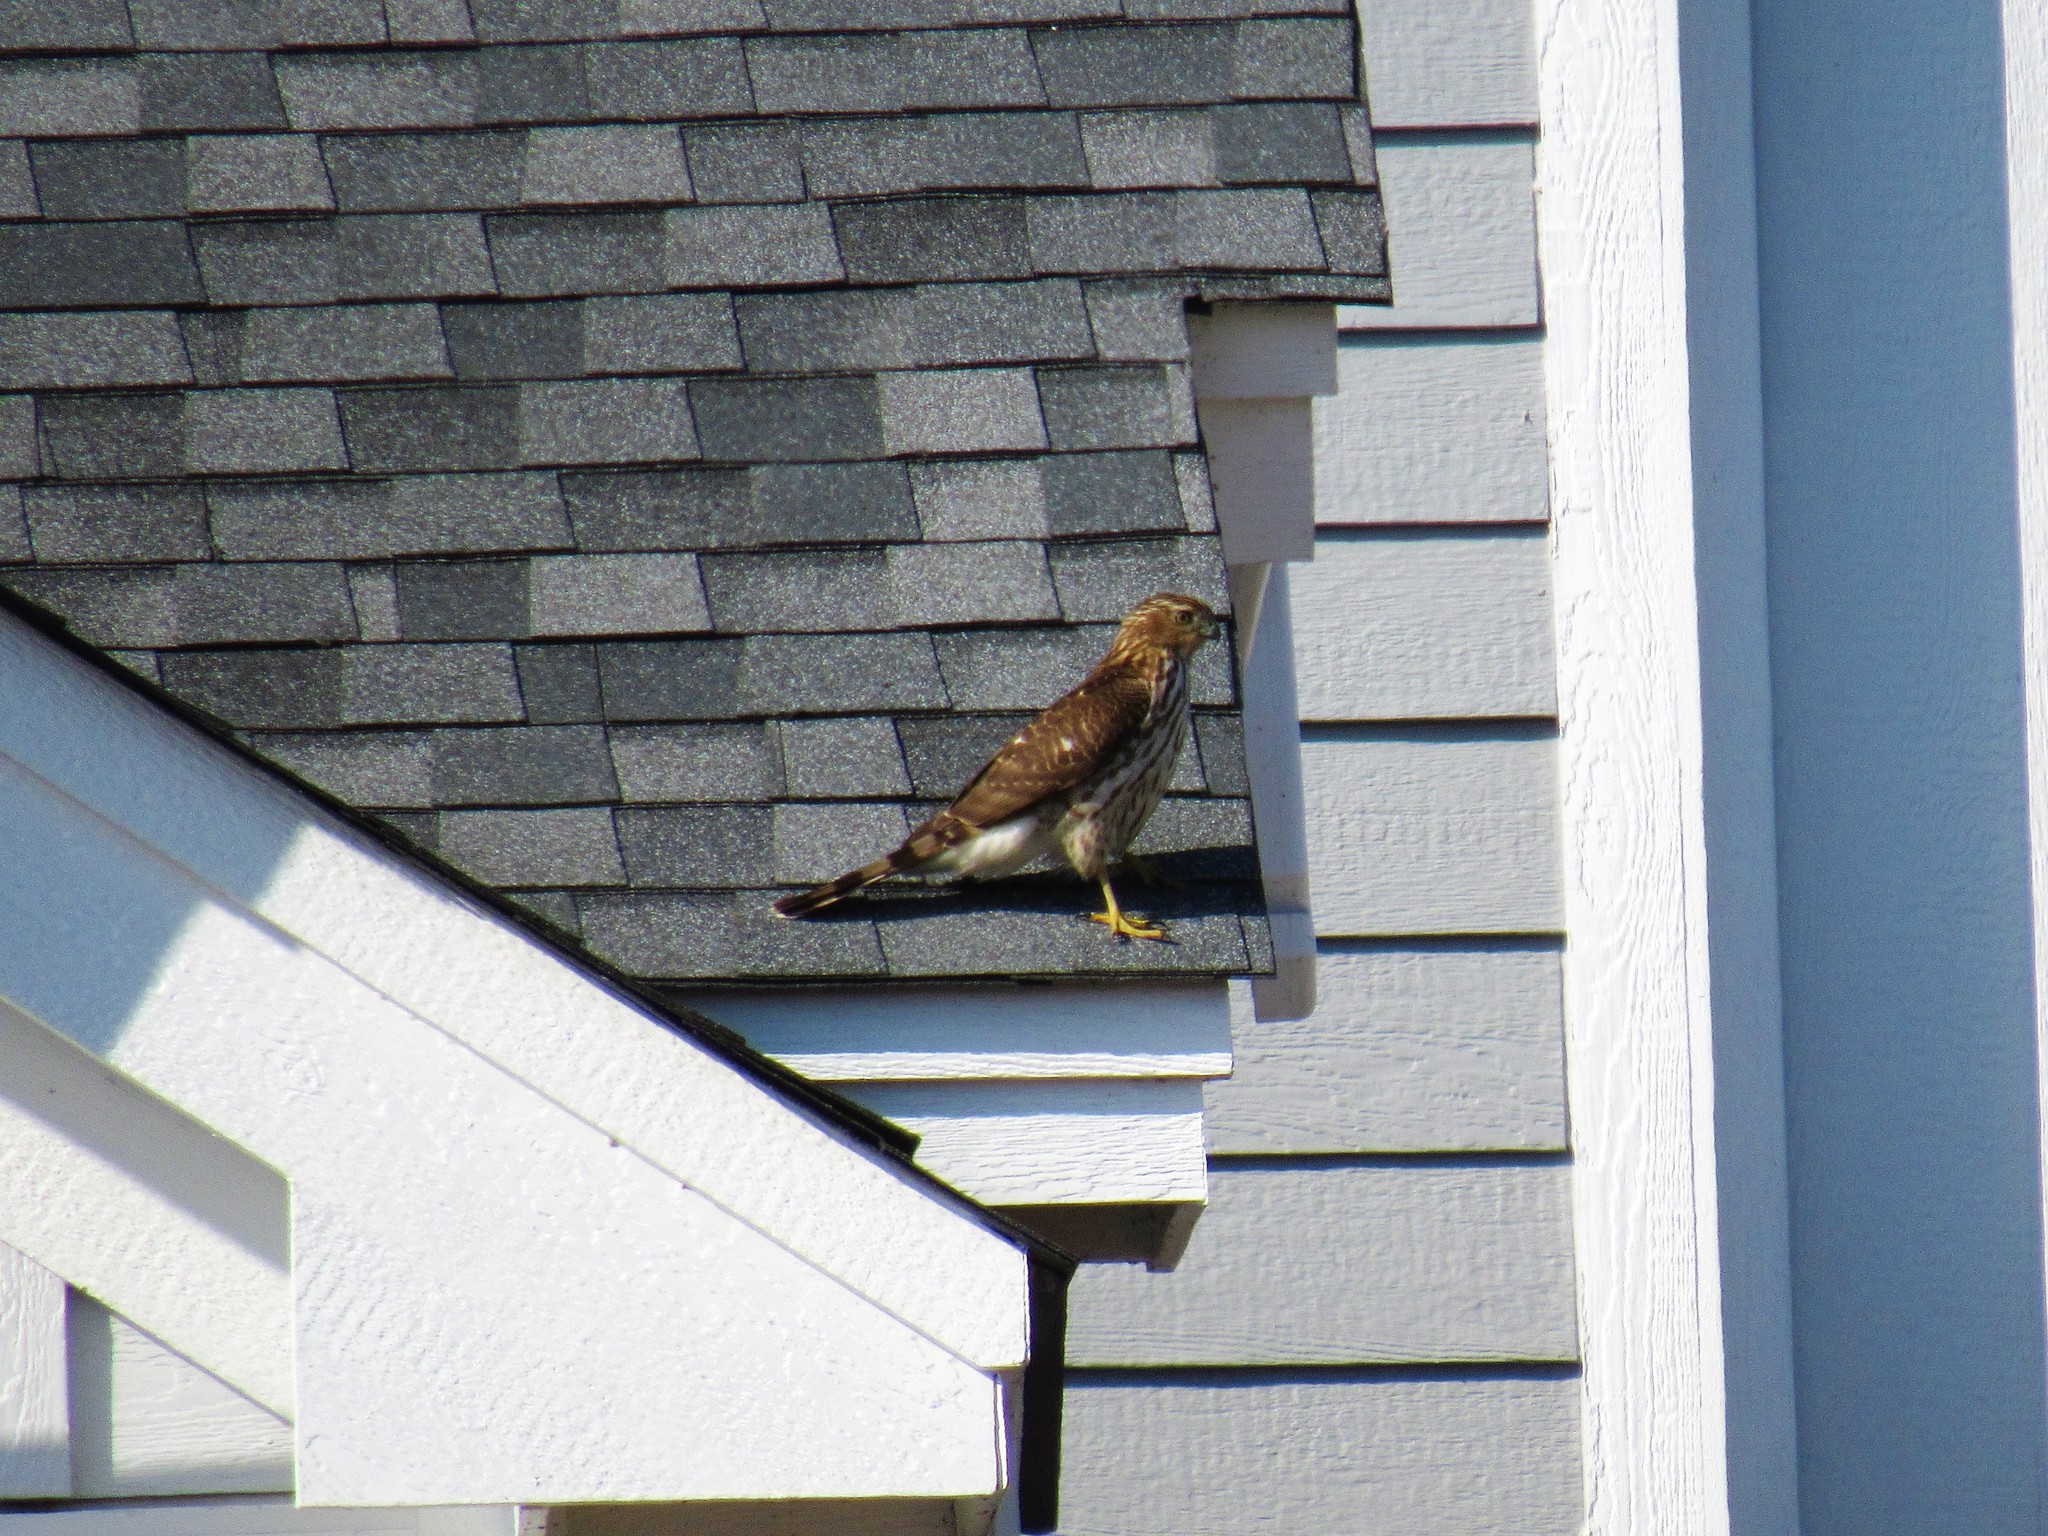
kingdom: Animalia
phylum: Chordata
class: Aves
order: Accipitriformes
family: Accipitridae
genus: Accipiter
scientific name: Accipiter cooperii
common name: Cooper's hawk
